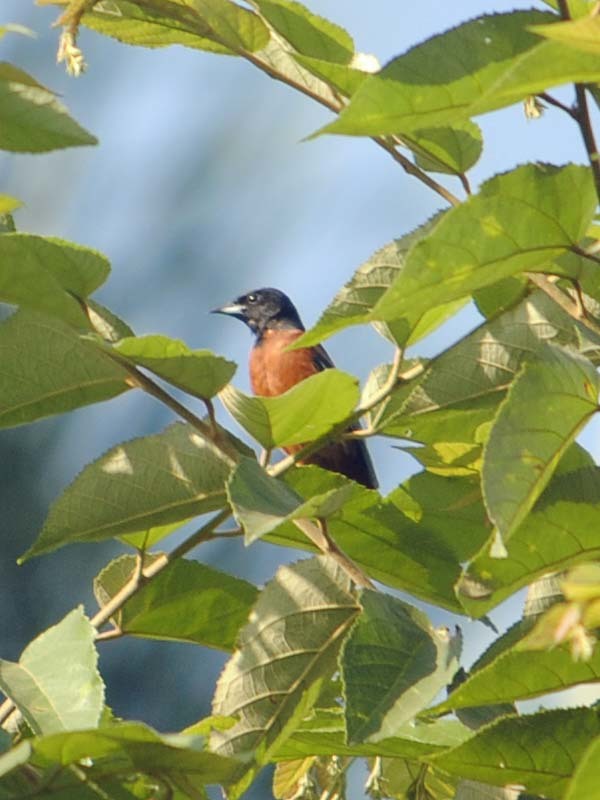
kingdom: Animalia
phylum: Chordata
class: Aves
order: Passeriformes
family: Icteridae
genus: Icterus
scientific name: Icterus spurius
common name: Orchard oriole
